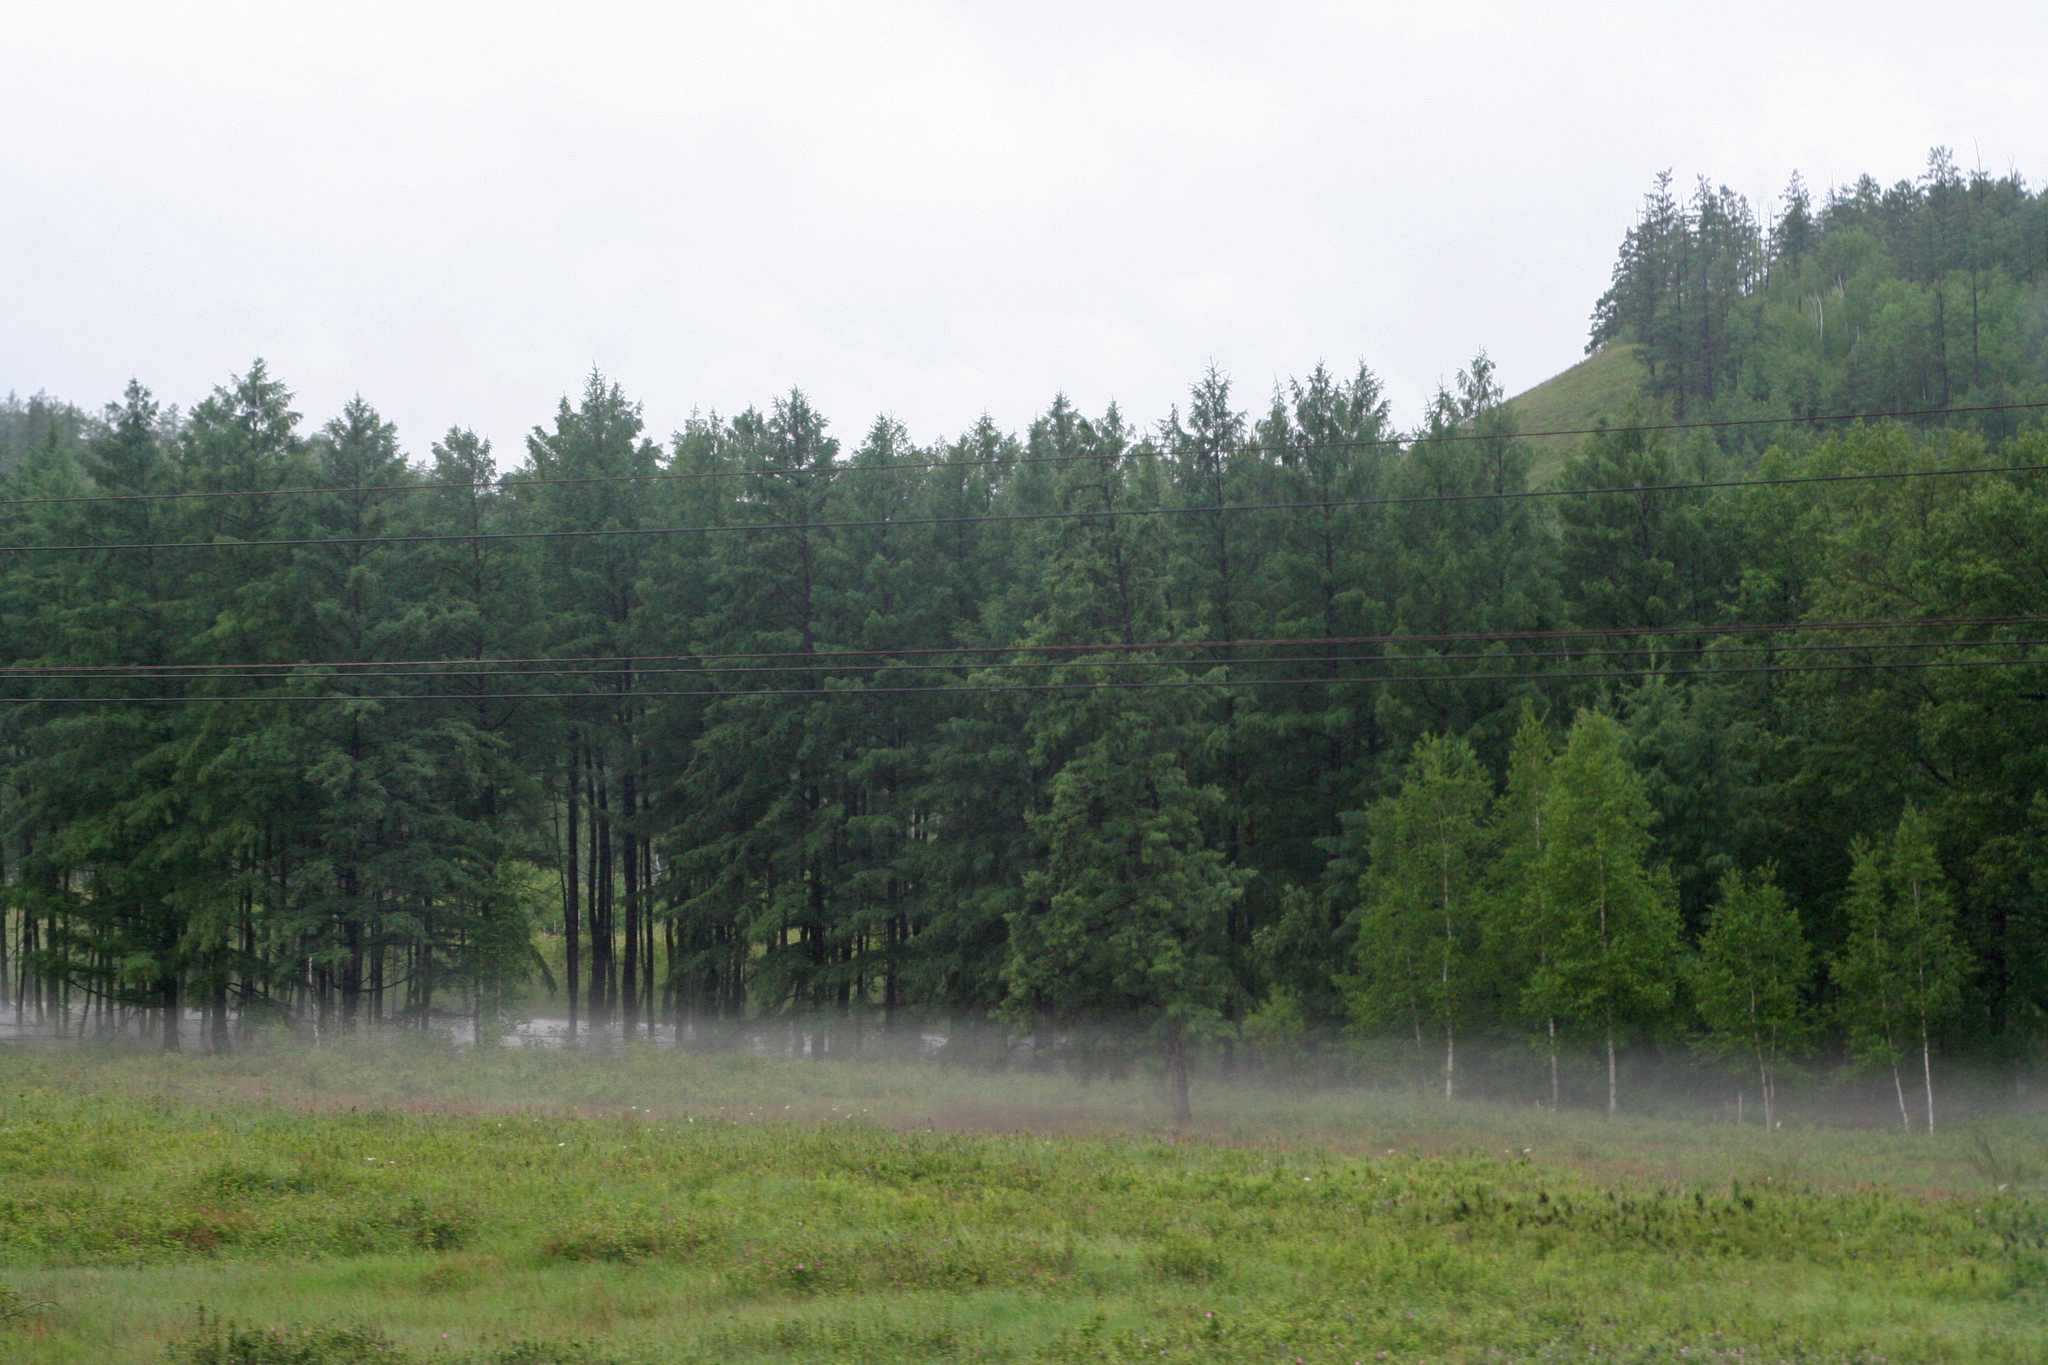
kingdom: Plantae
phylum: Tracheophyta
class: Pinopsida
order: Pinales
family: Pinaceae
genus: Larix
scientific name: Larix gmelinii
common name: Dahurian larch
